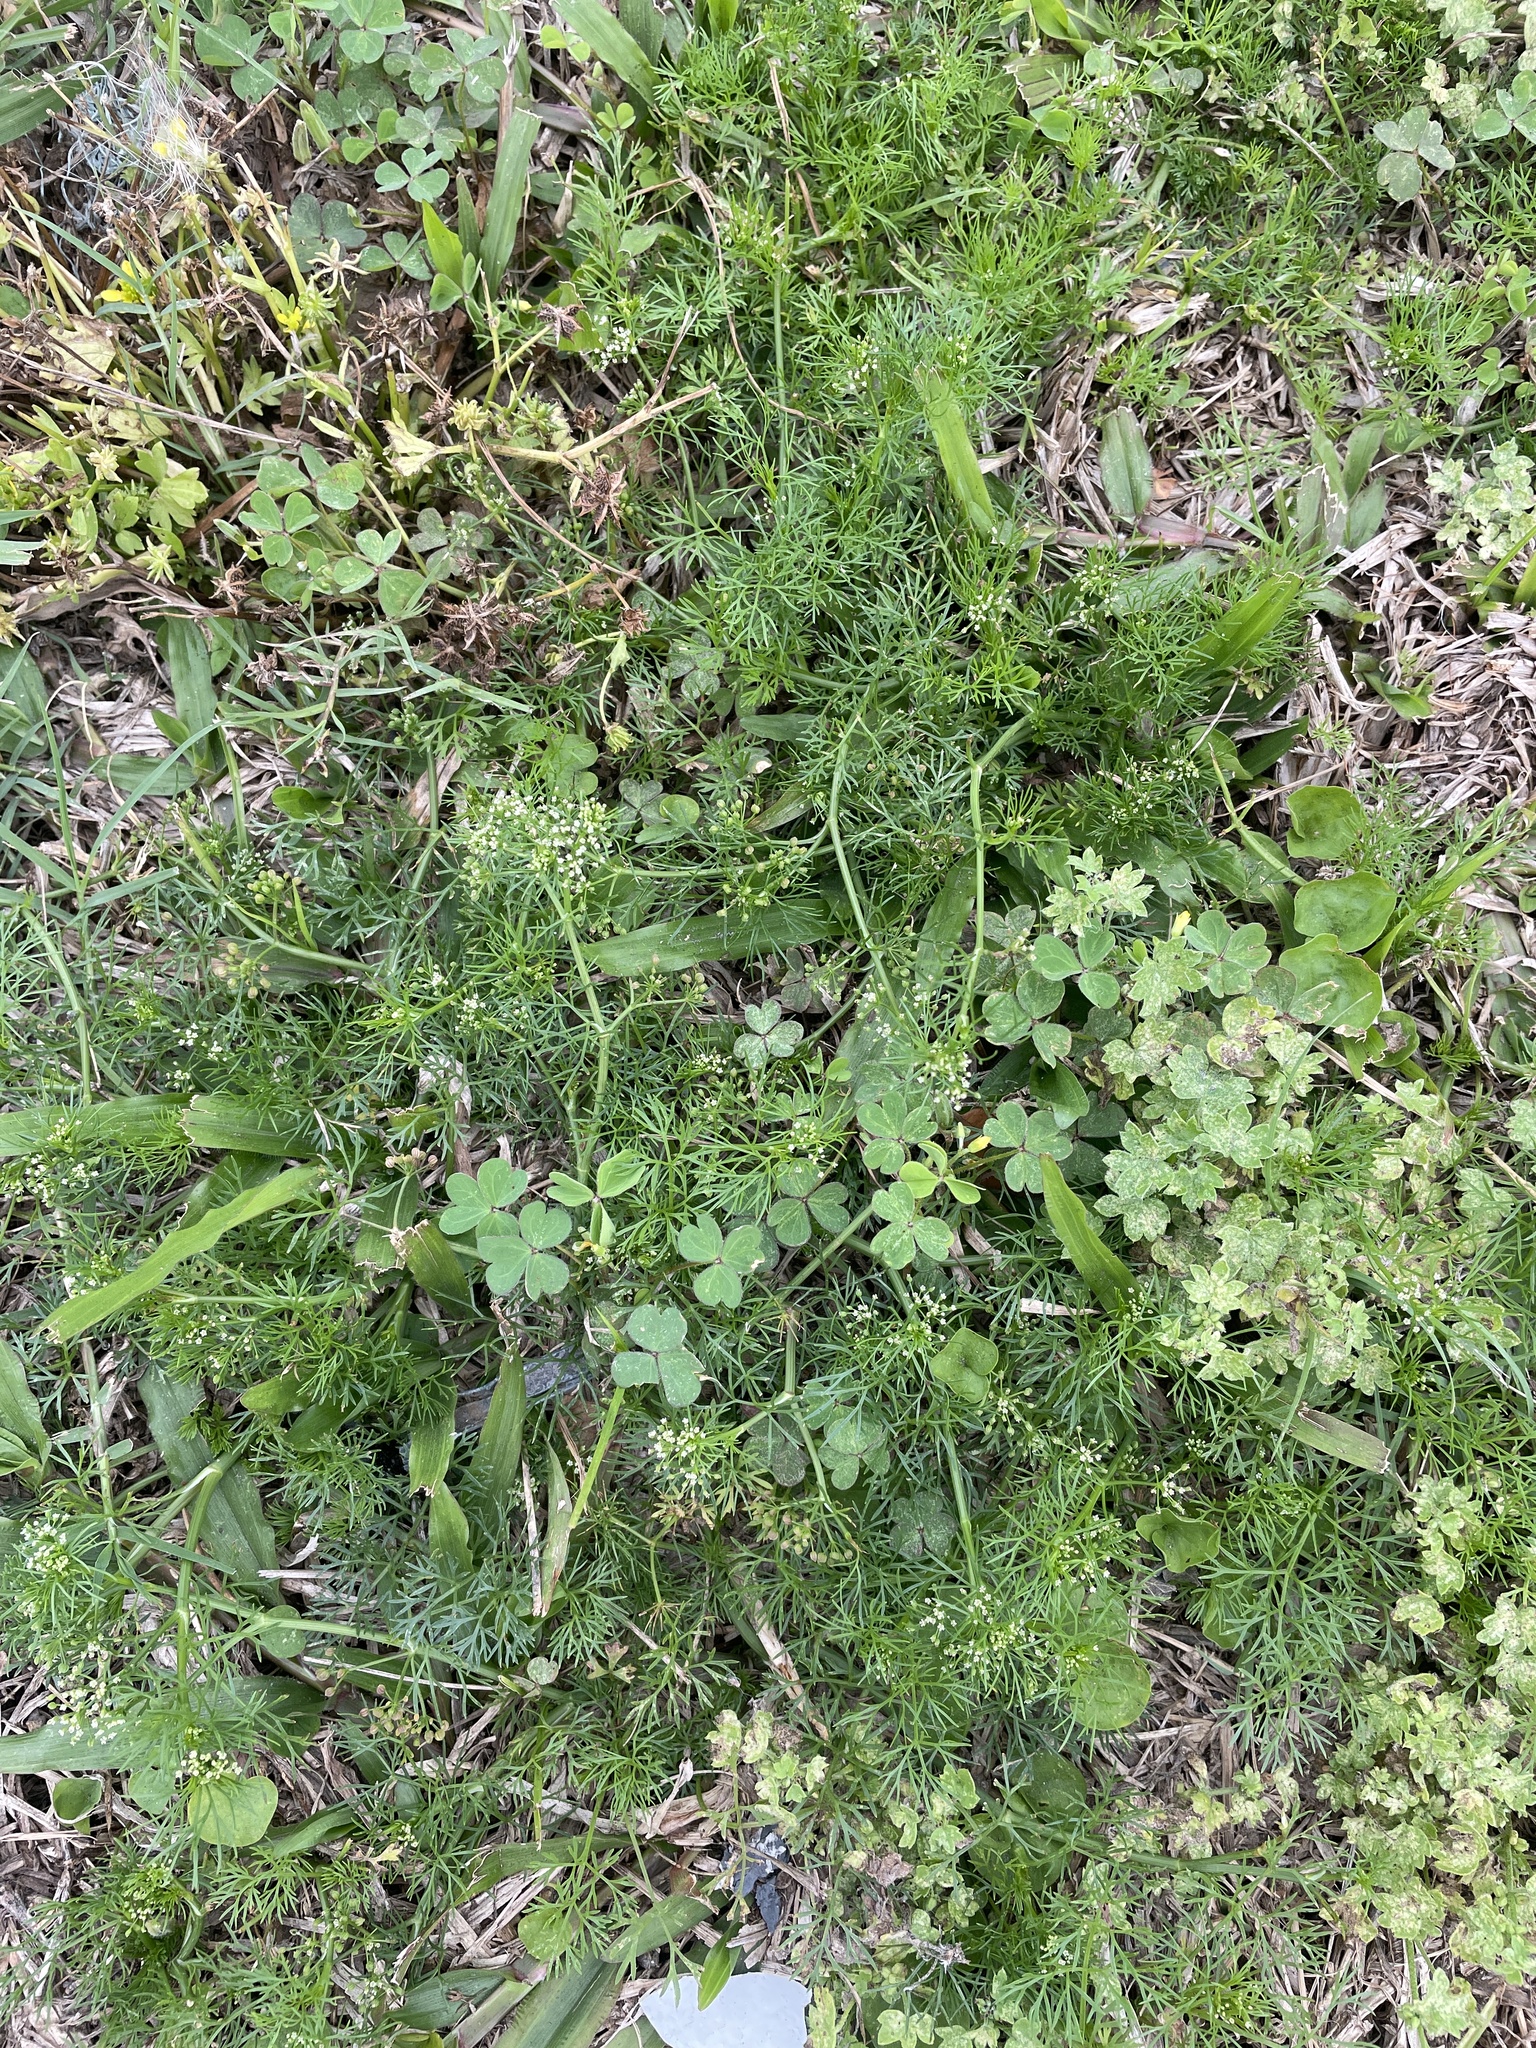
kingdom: Plantae
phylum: Tracheophyta
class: Magnoliopsida
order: Apiales
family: Apiaceae
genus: Cyclospermum
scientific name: Cyclospermum leptophyllum
